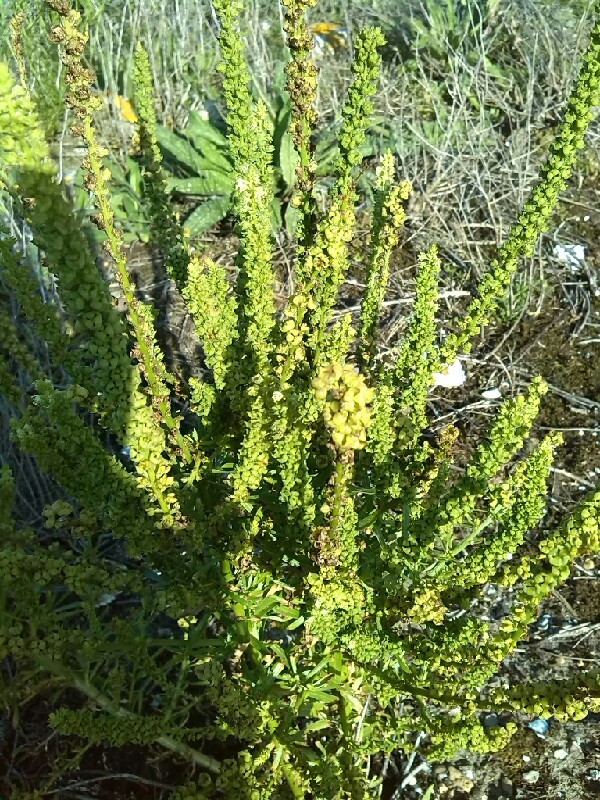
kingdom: Plantae
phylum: Tracheophyta
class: Magnoliopsida
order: Brassicales
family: Resedaceae
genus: Reseda
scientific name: Reseda luteola
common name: Weld
